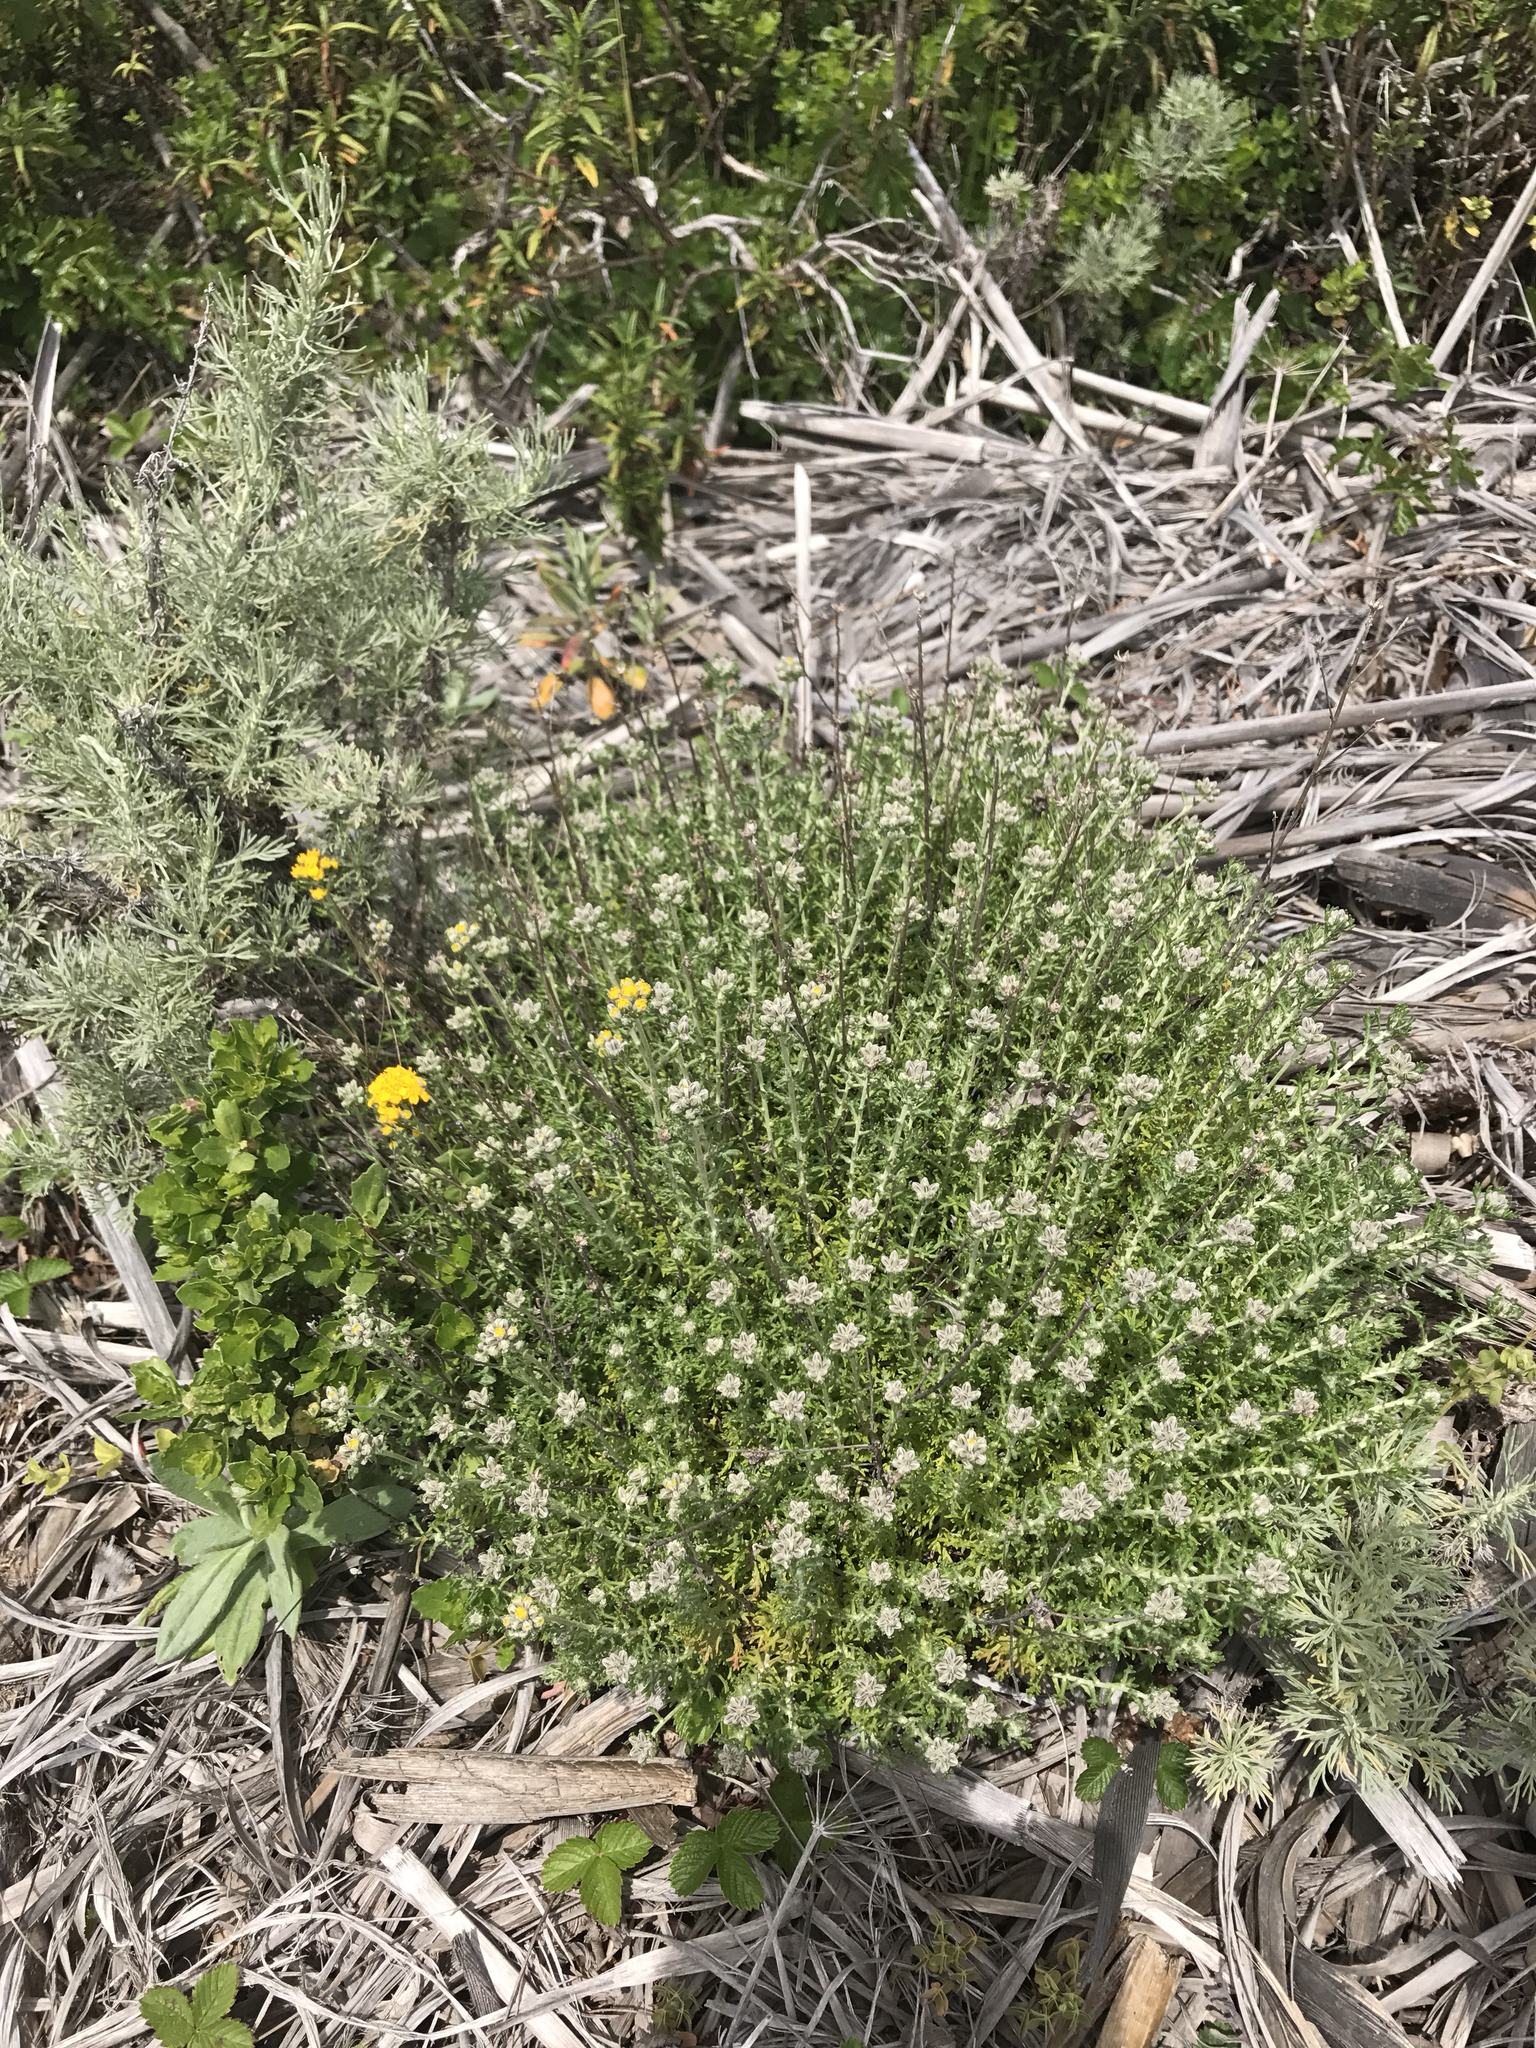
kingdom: Plantae
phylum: Tracheophyta
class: Magnoliopsida
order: Asterales
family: Asteraceae
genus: Eriophyllum
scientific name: Eriophyllum confertiflorum
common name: Golden-yarrow
